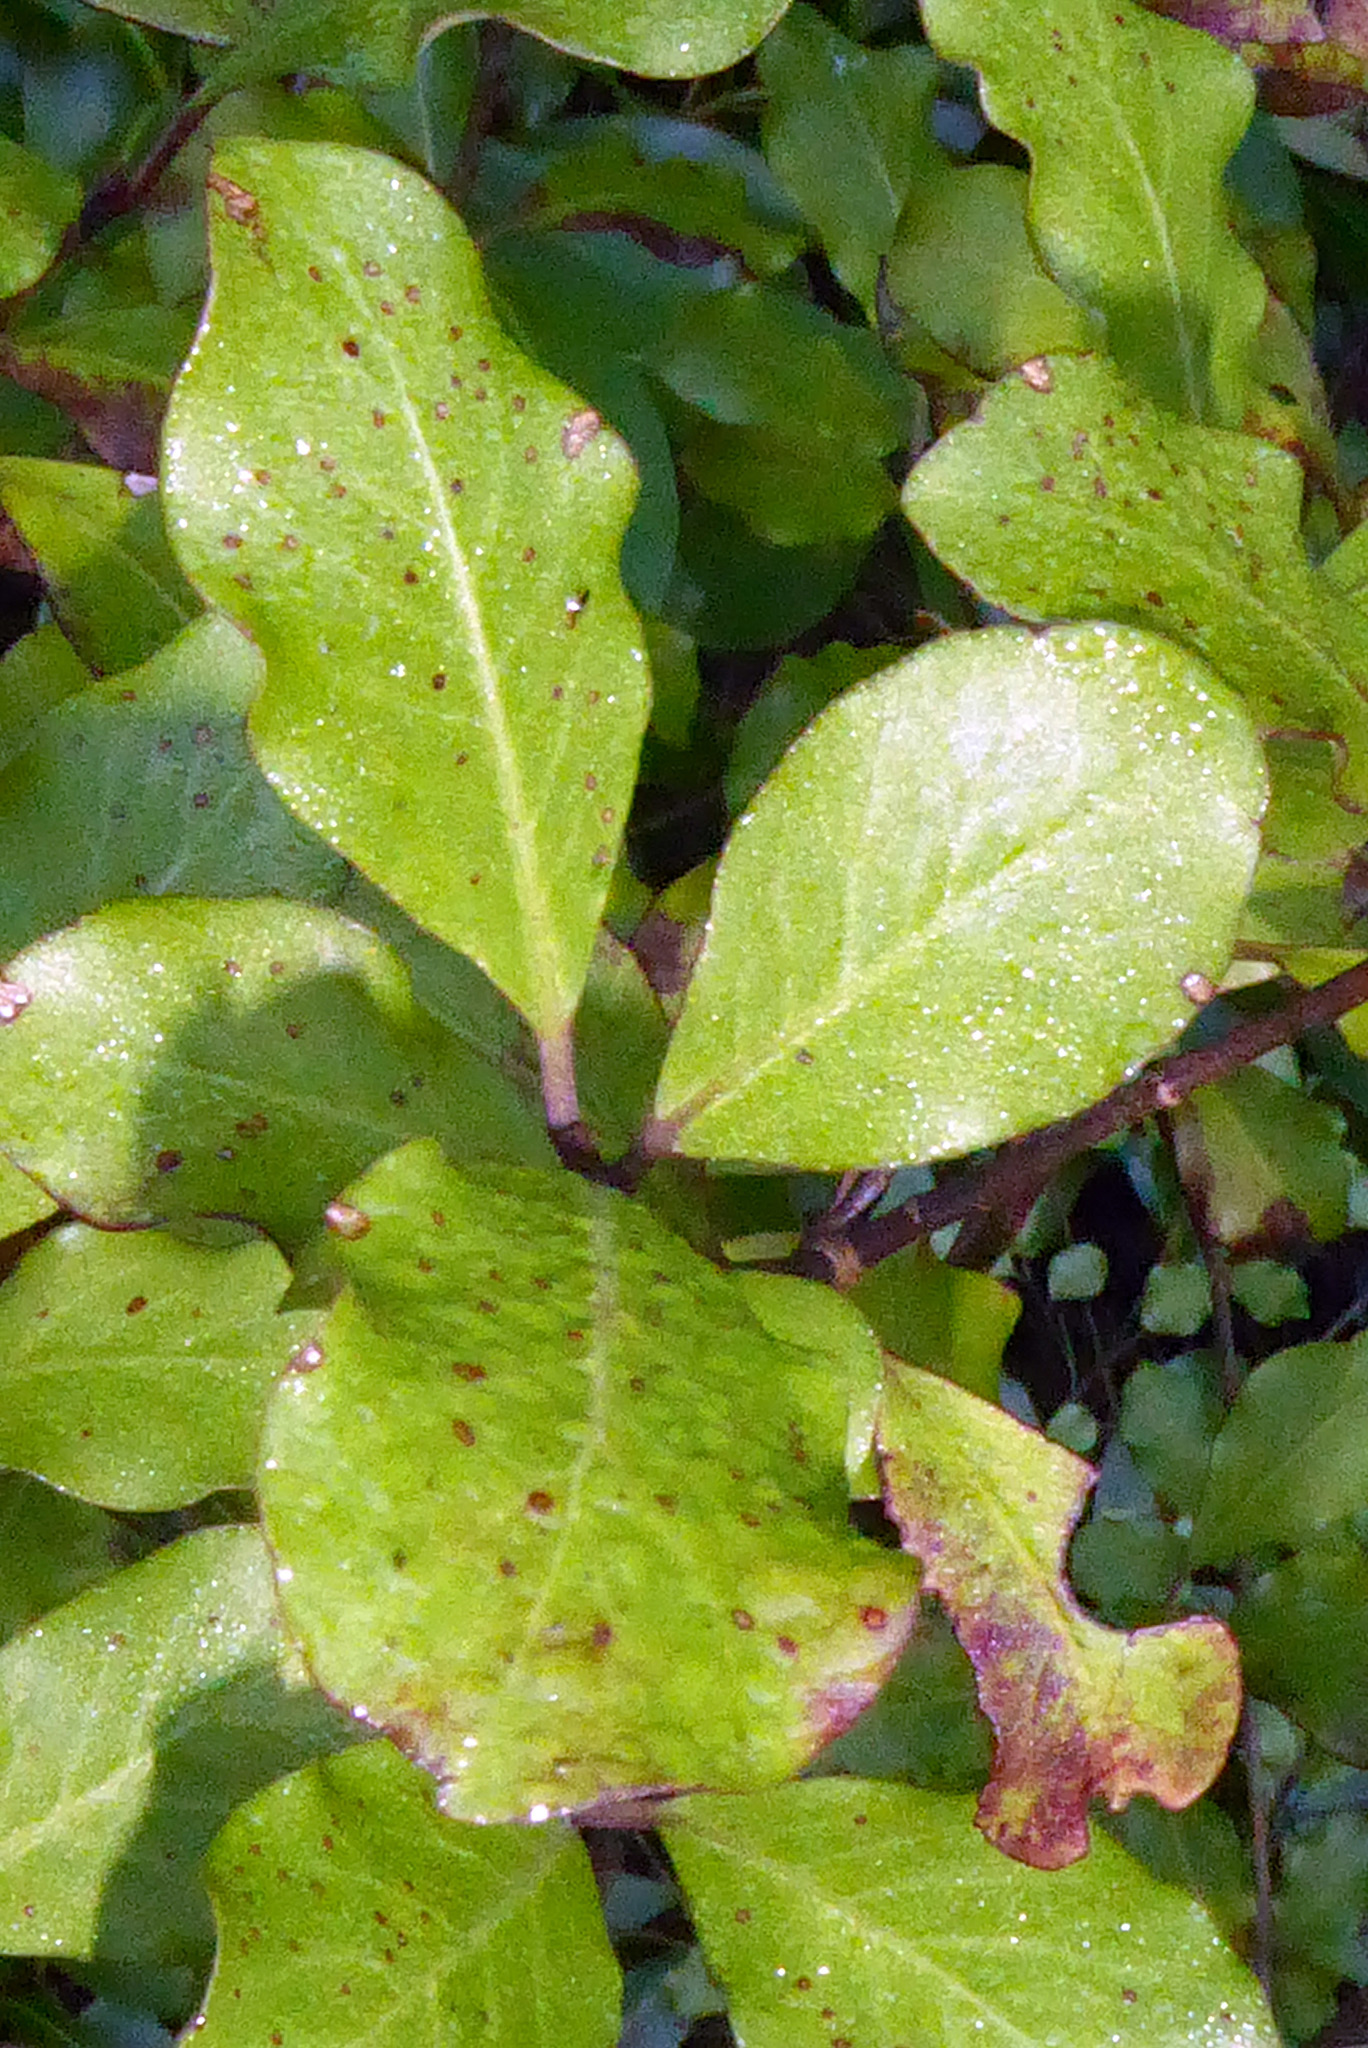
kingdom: Plantae
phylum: Tracheophyta
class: Magnoliopsida
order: Apiales
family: Pittosporaceae
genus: Pittosporum
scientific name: Pittosporum tenuifolium
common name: Kohuhu
